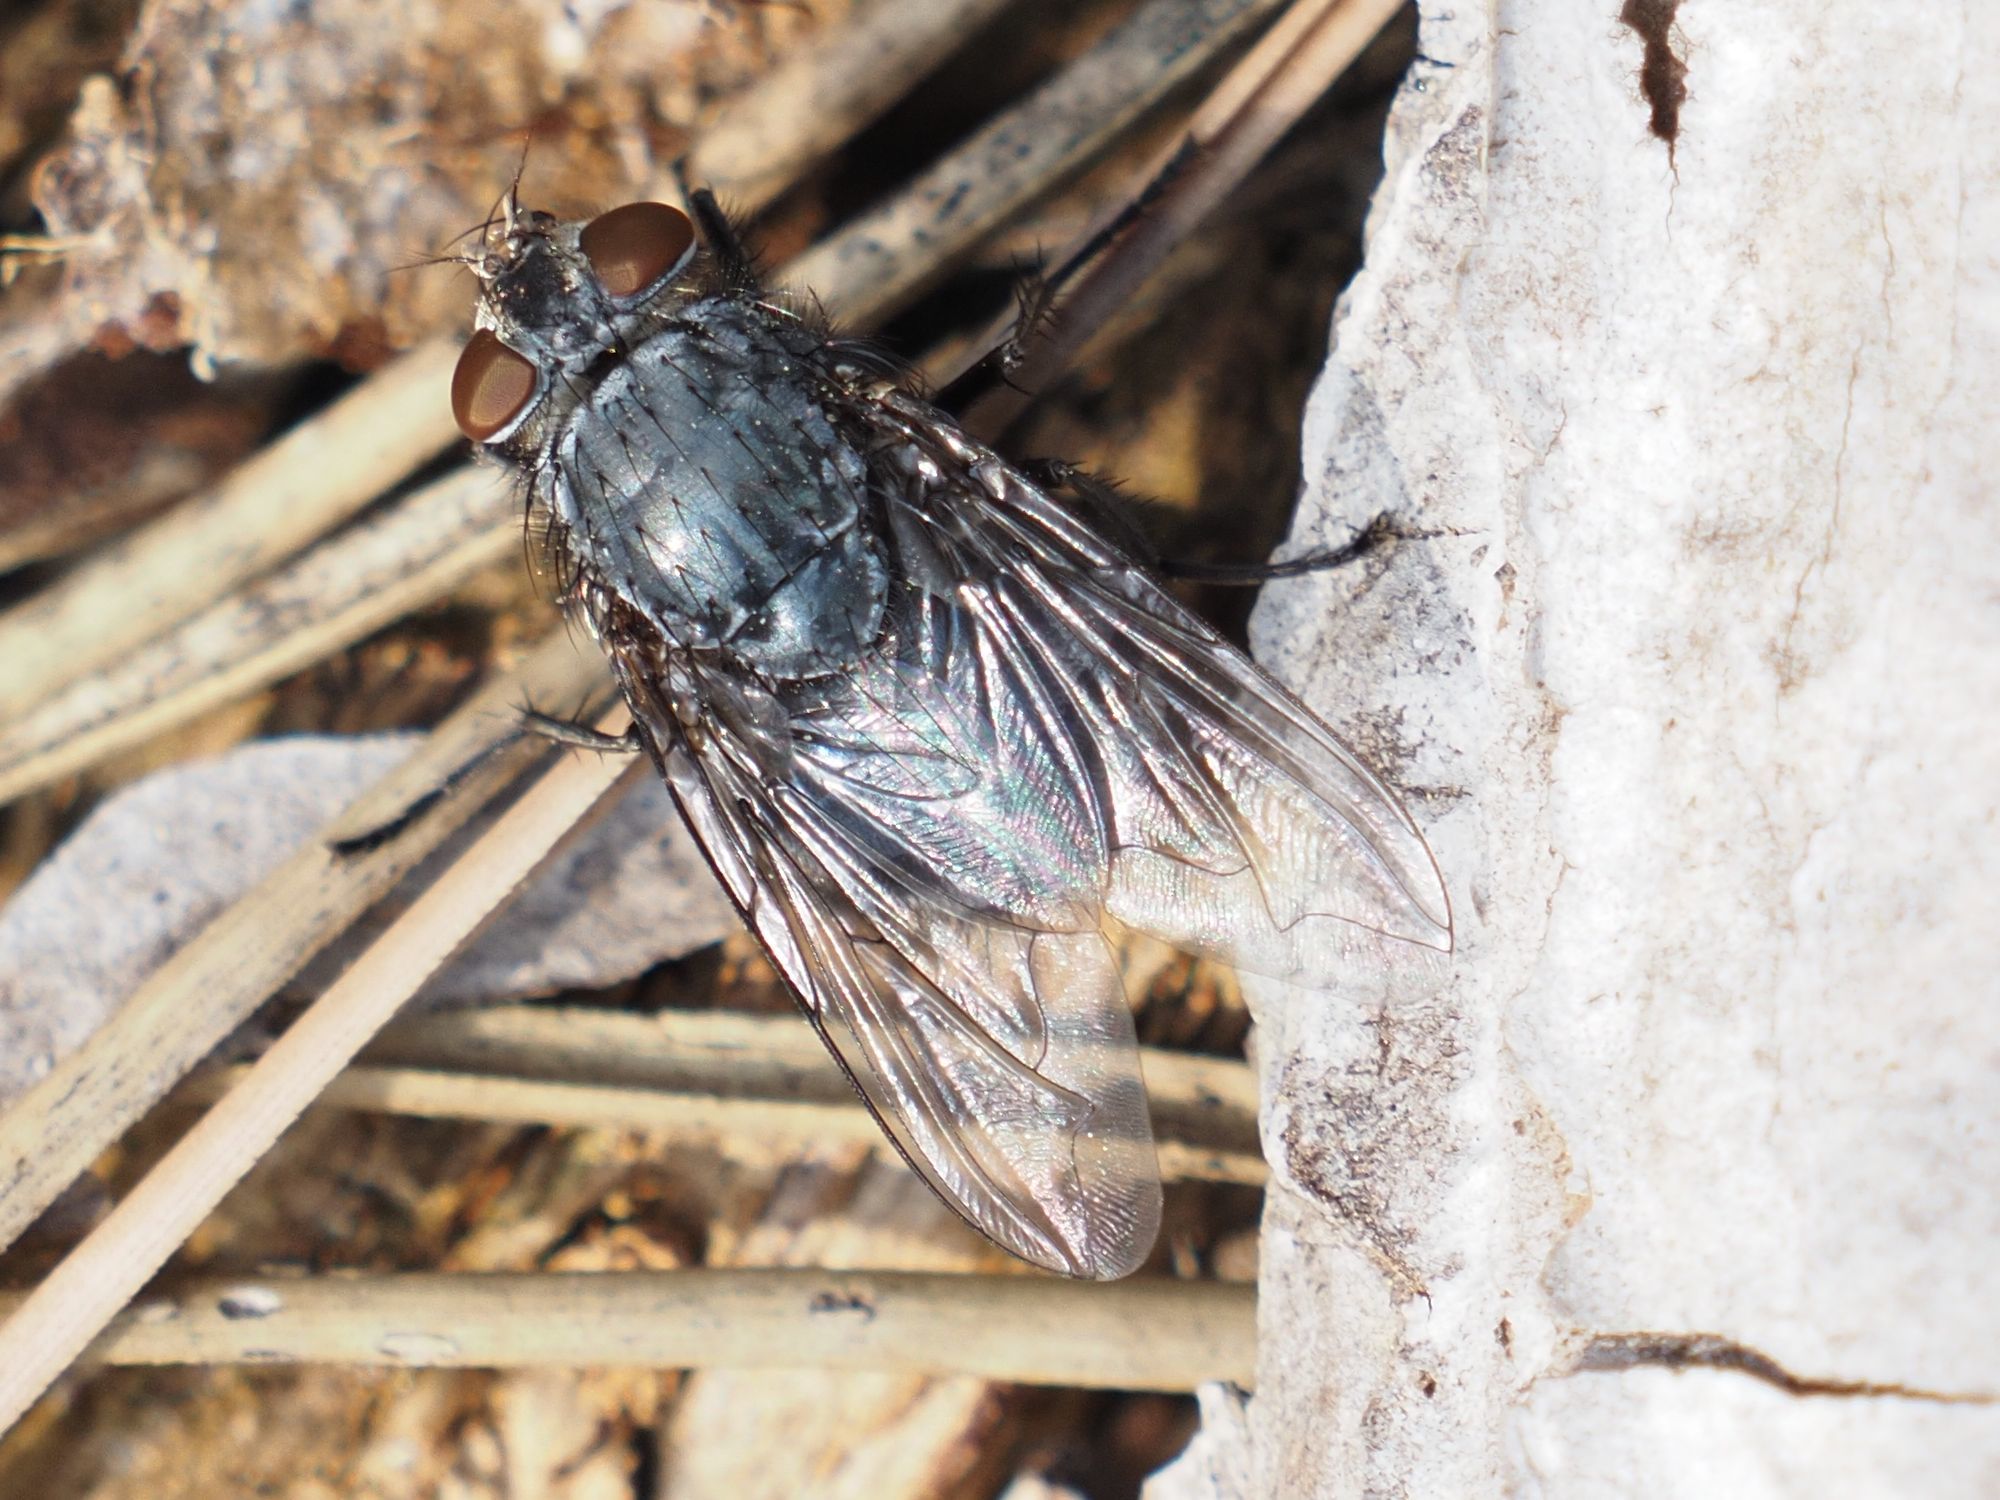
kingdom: Animalia
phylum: Arthropoda
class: Insecta
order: Diptera
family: Calliphoridae
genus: Calliphora
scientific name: Calliphora vicina
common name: Common blow flie
